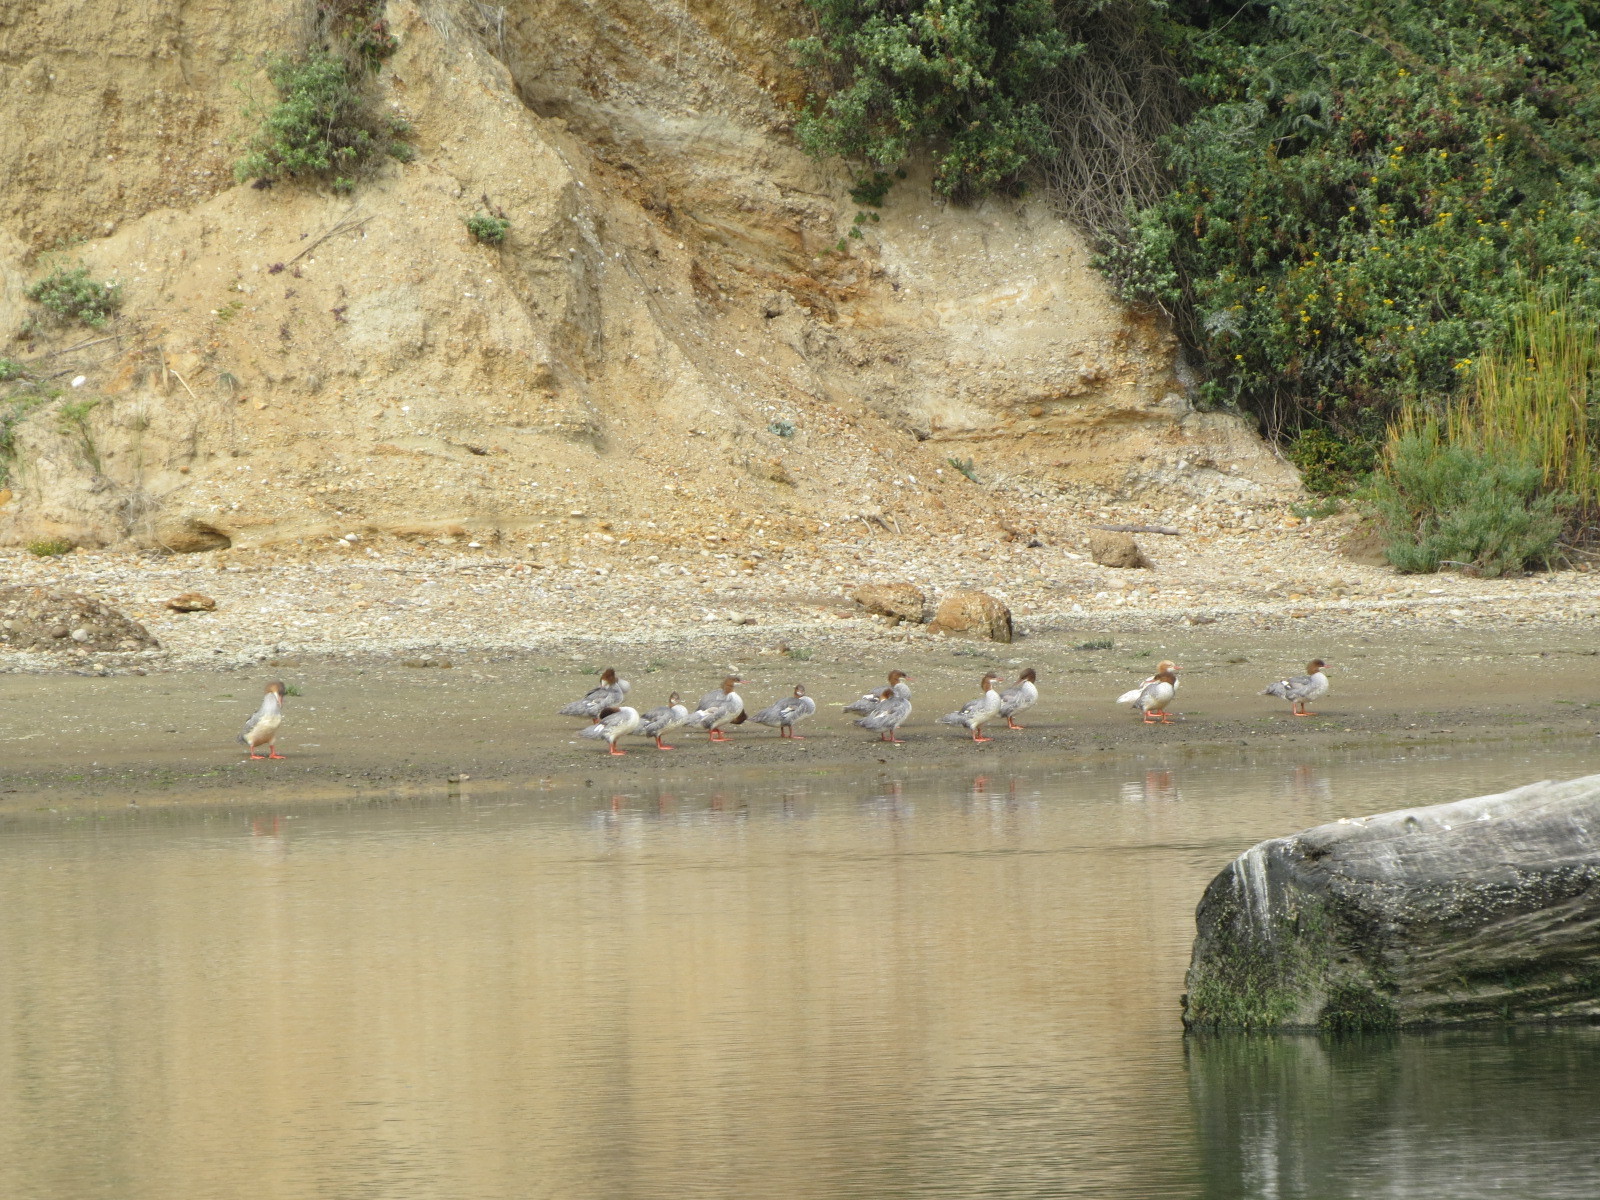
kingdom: Animalia
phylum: Chordata
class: Aves
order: Anseriformes
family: Anatidae
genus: Mergus
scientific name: Mergus merganser
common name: Common merganser
